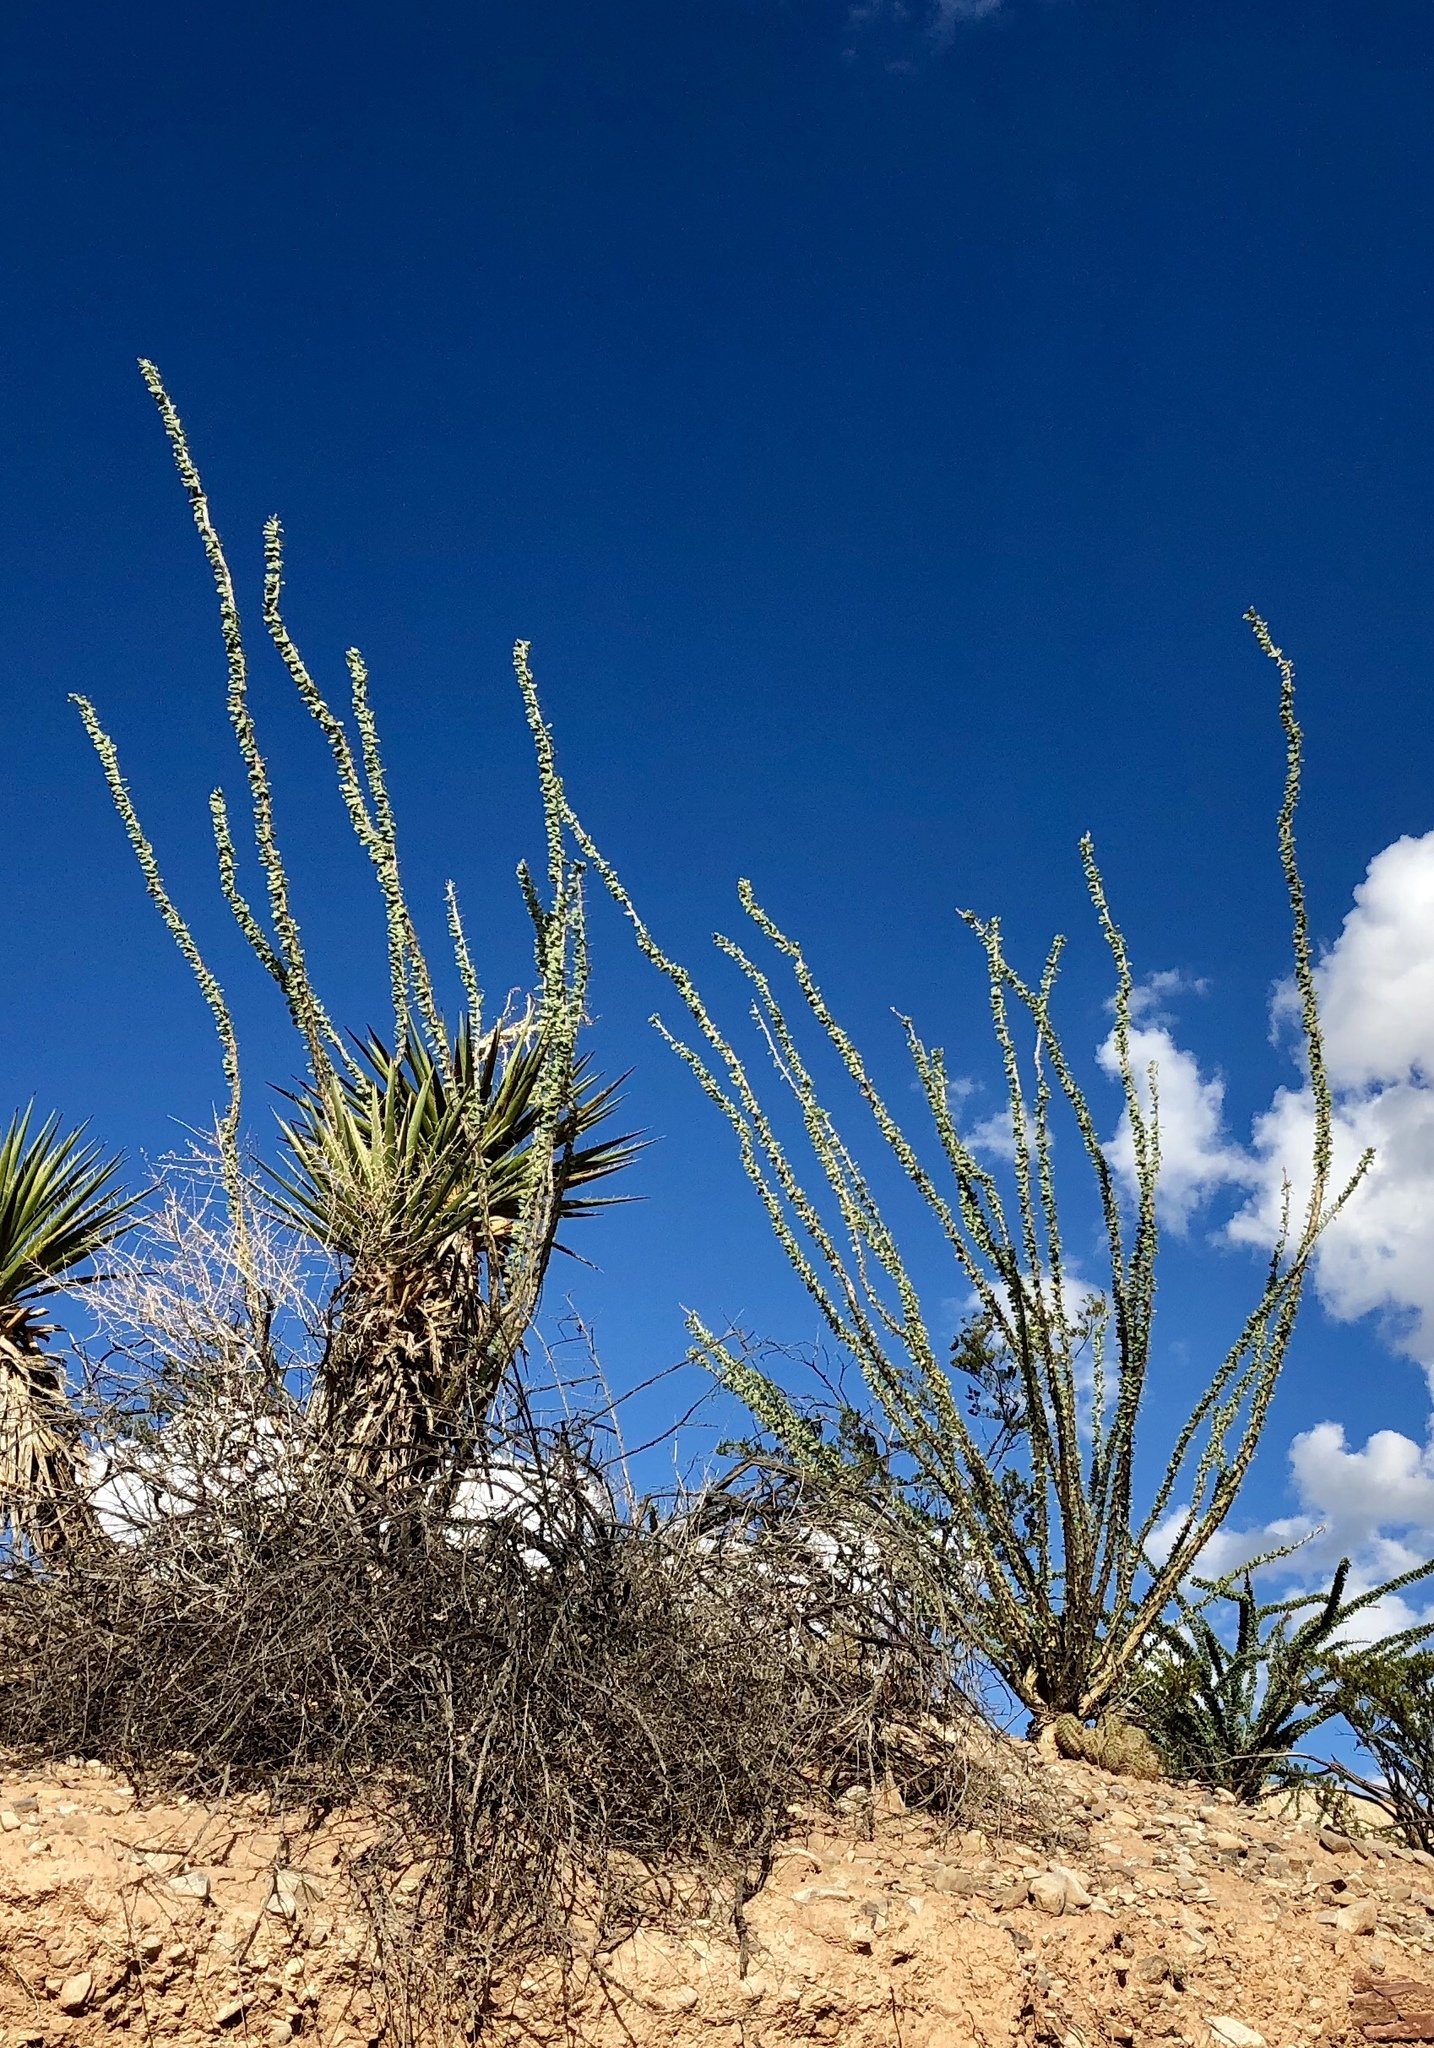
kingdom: Plantae
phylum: Tracheophyta
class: Magnoliopsida
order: Ericales
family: Fouquieriaceae
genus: Fouquieria
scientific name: Fouquieria splendens
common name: Vine-cactus
